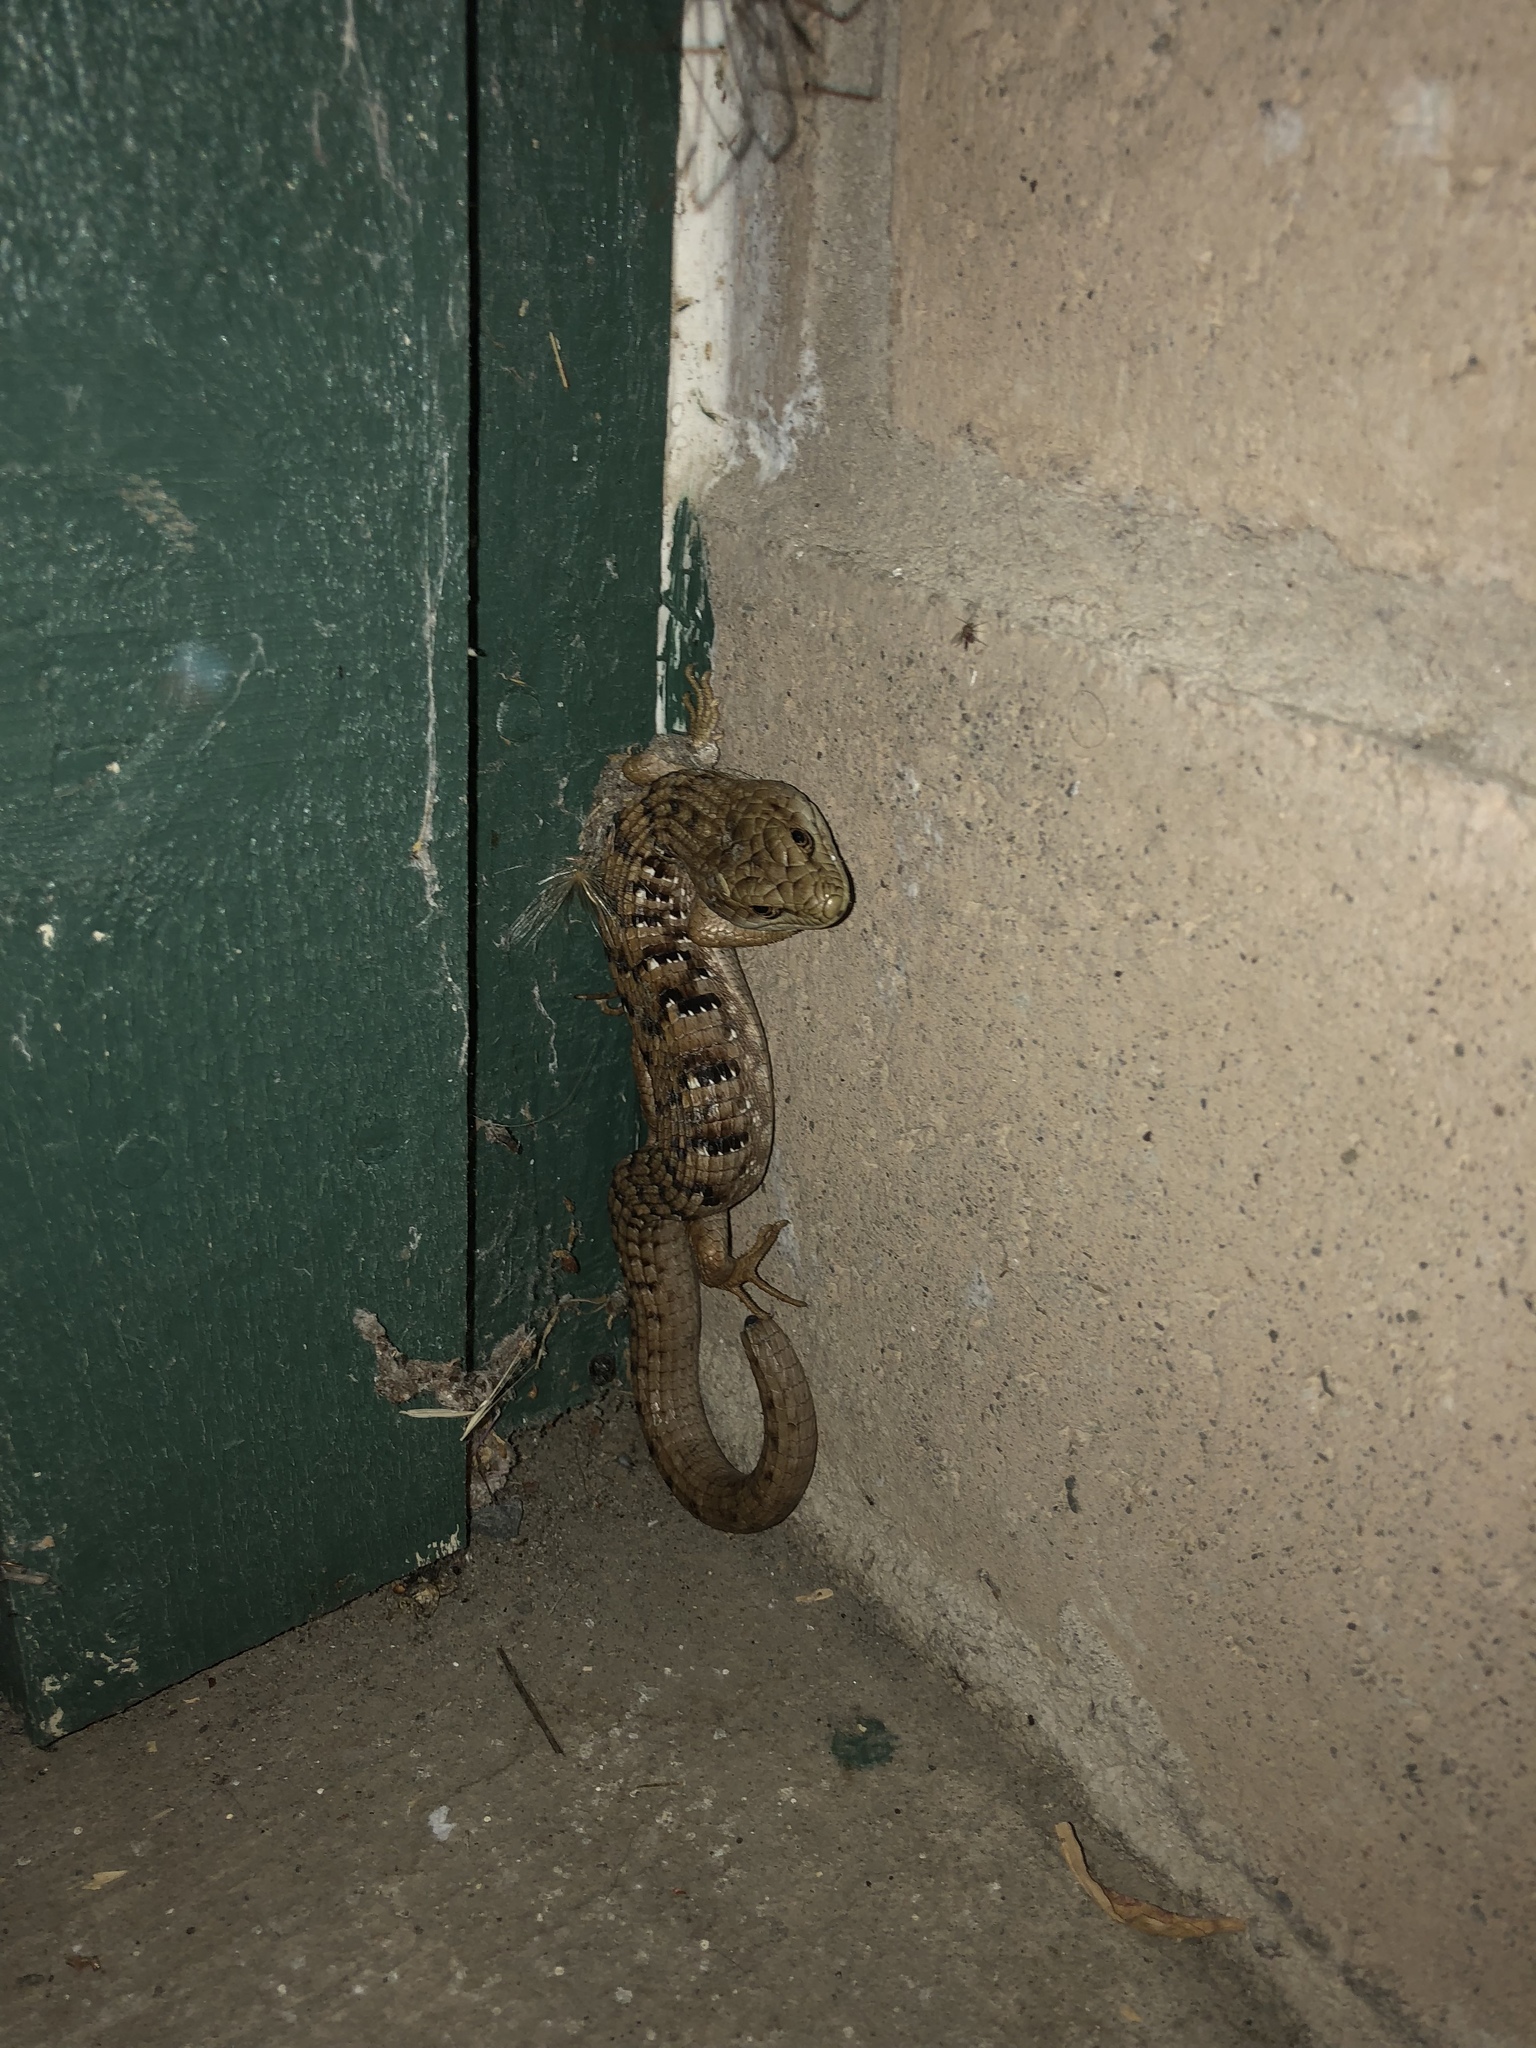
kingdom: Animalia
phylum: Chordata
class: Squamata
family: Anguidae
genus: Elgaria
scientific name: Elgaria multicarinata
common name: Southern alligator lizard
